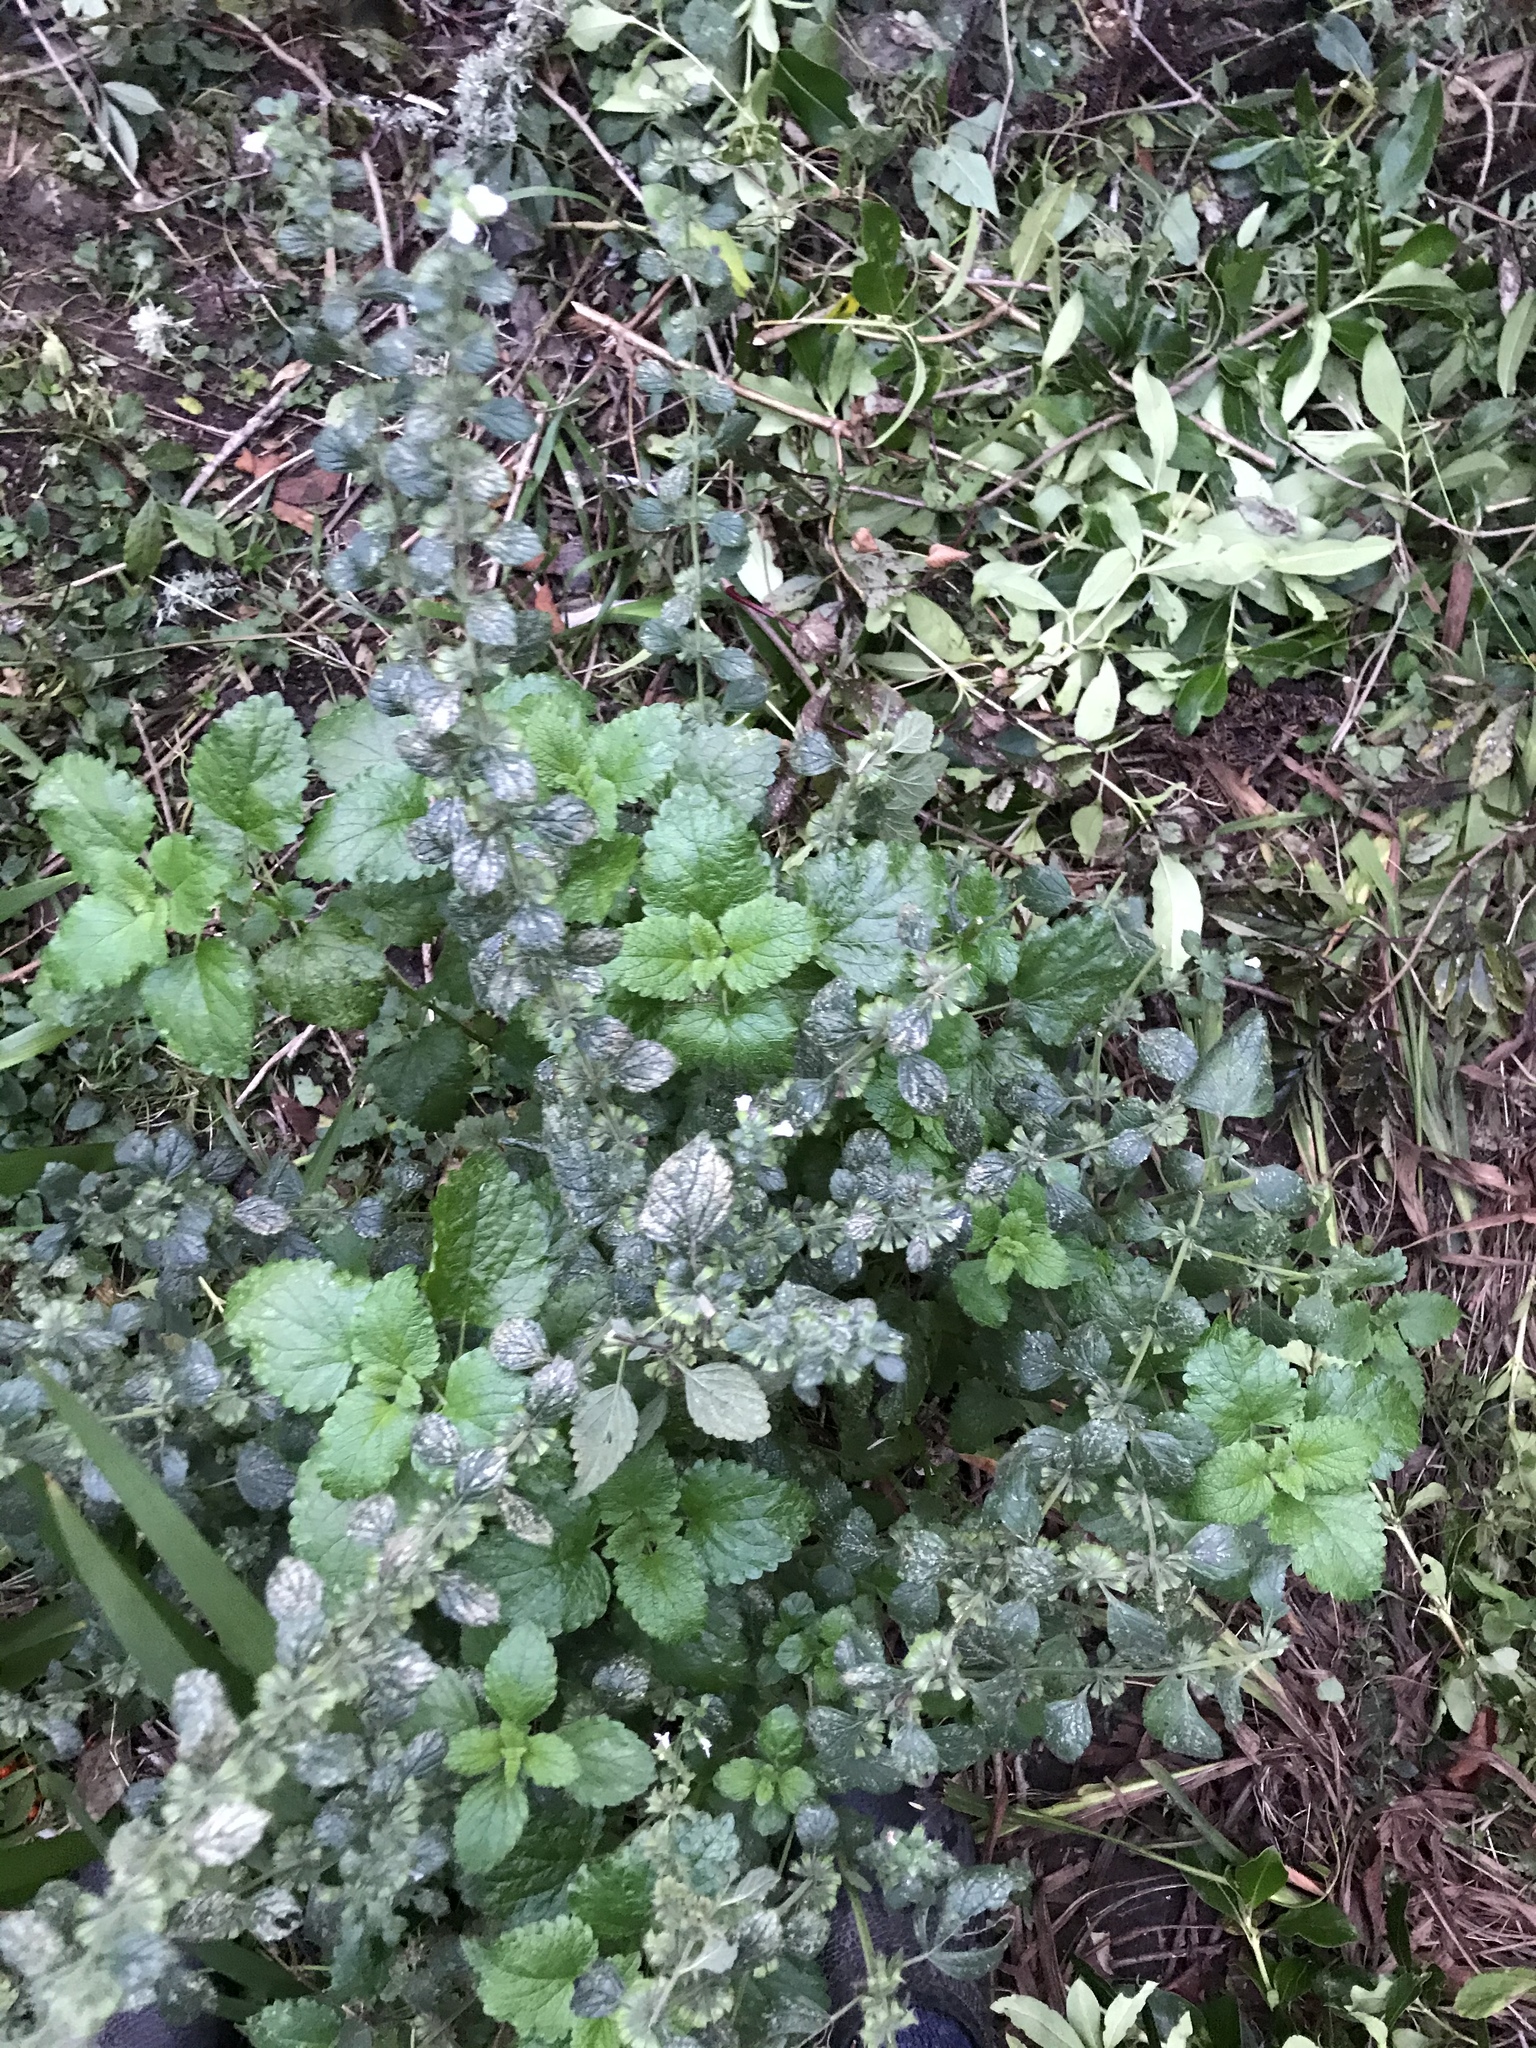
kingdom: Plantae
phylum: Tracheophyta
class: Magnoliopsida
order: Lamiales
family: Lamiaceae
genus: Melissa
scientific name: Melissa officinalis
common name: Balm
